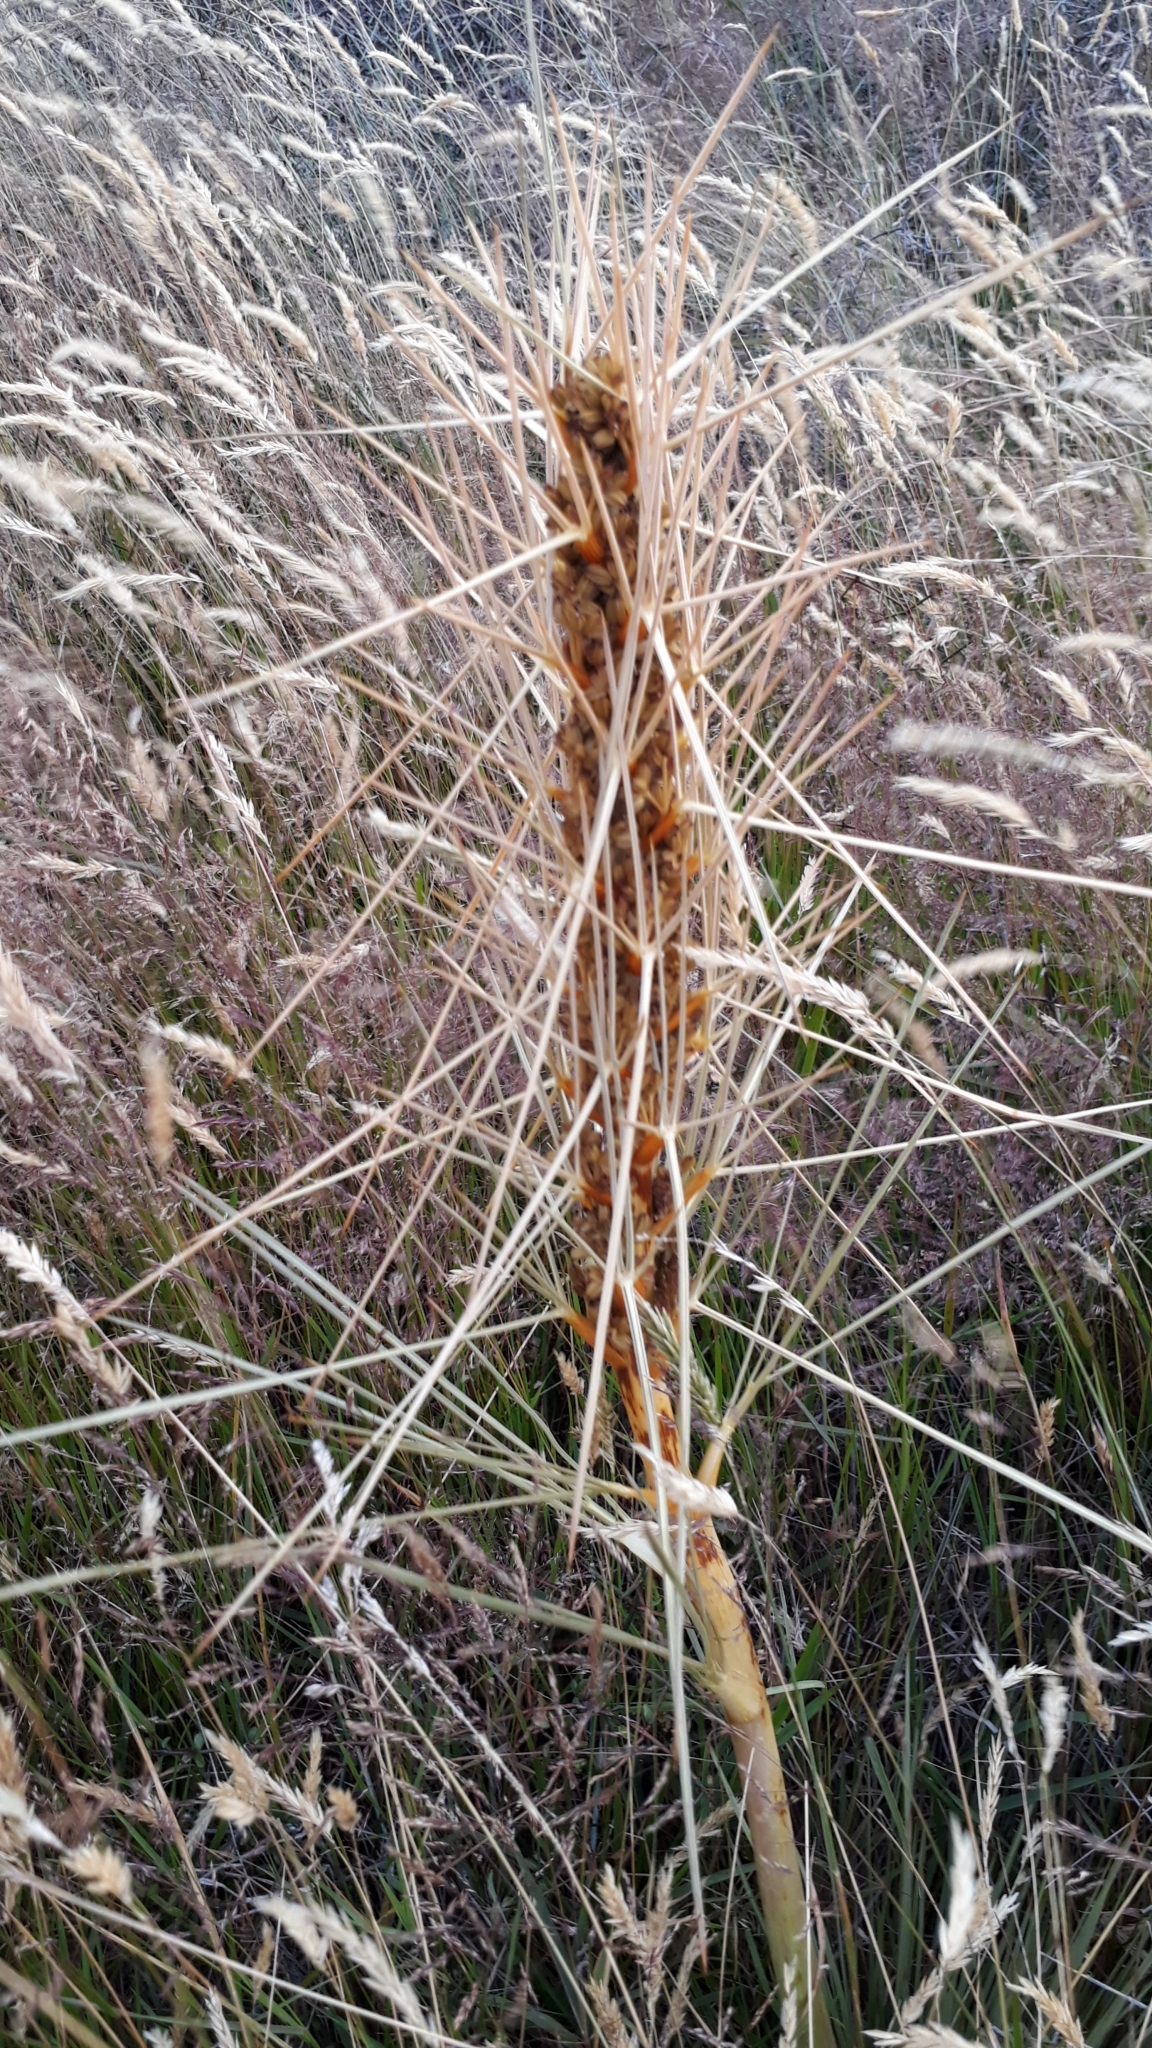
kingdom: Plantae
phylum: Tracheophyta
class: Magnoliopsida
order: Apiales
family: Apiaceae
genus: Aciphylla
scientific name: Aciphylla subflabellata
